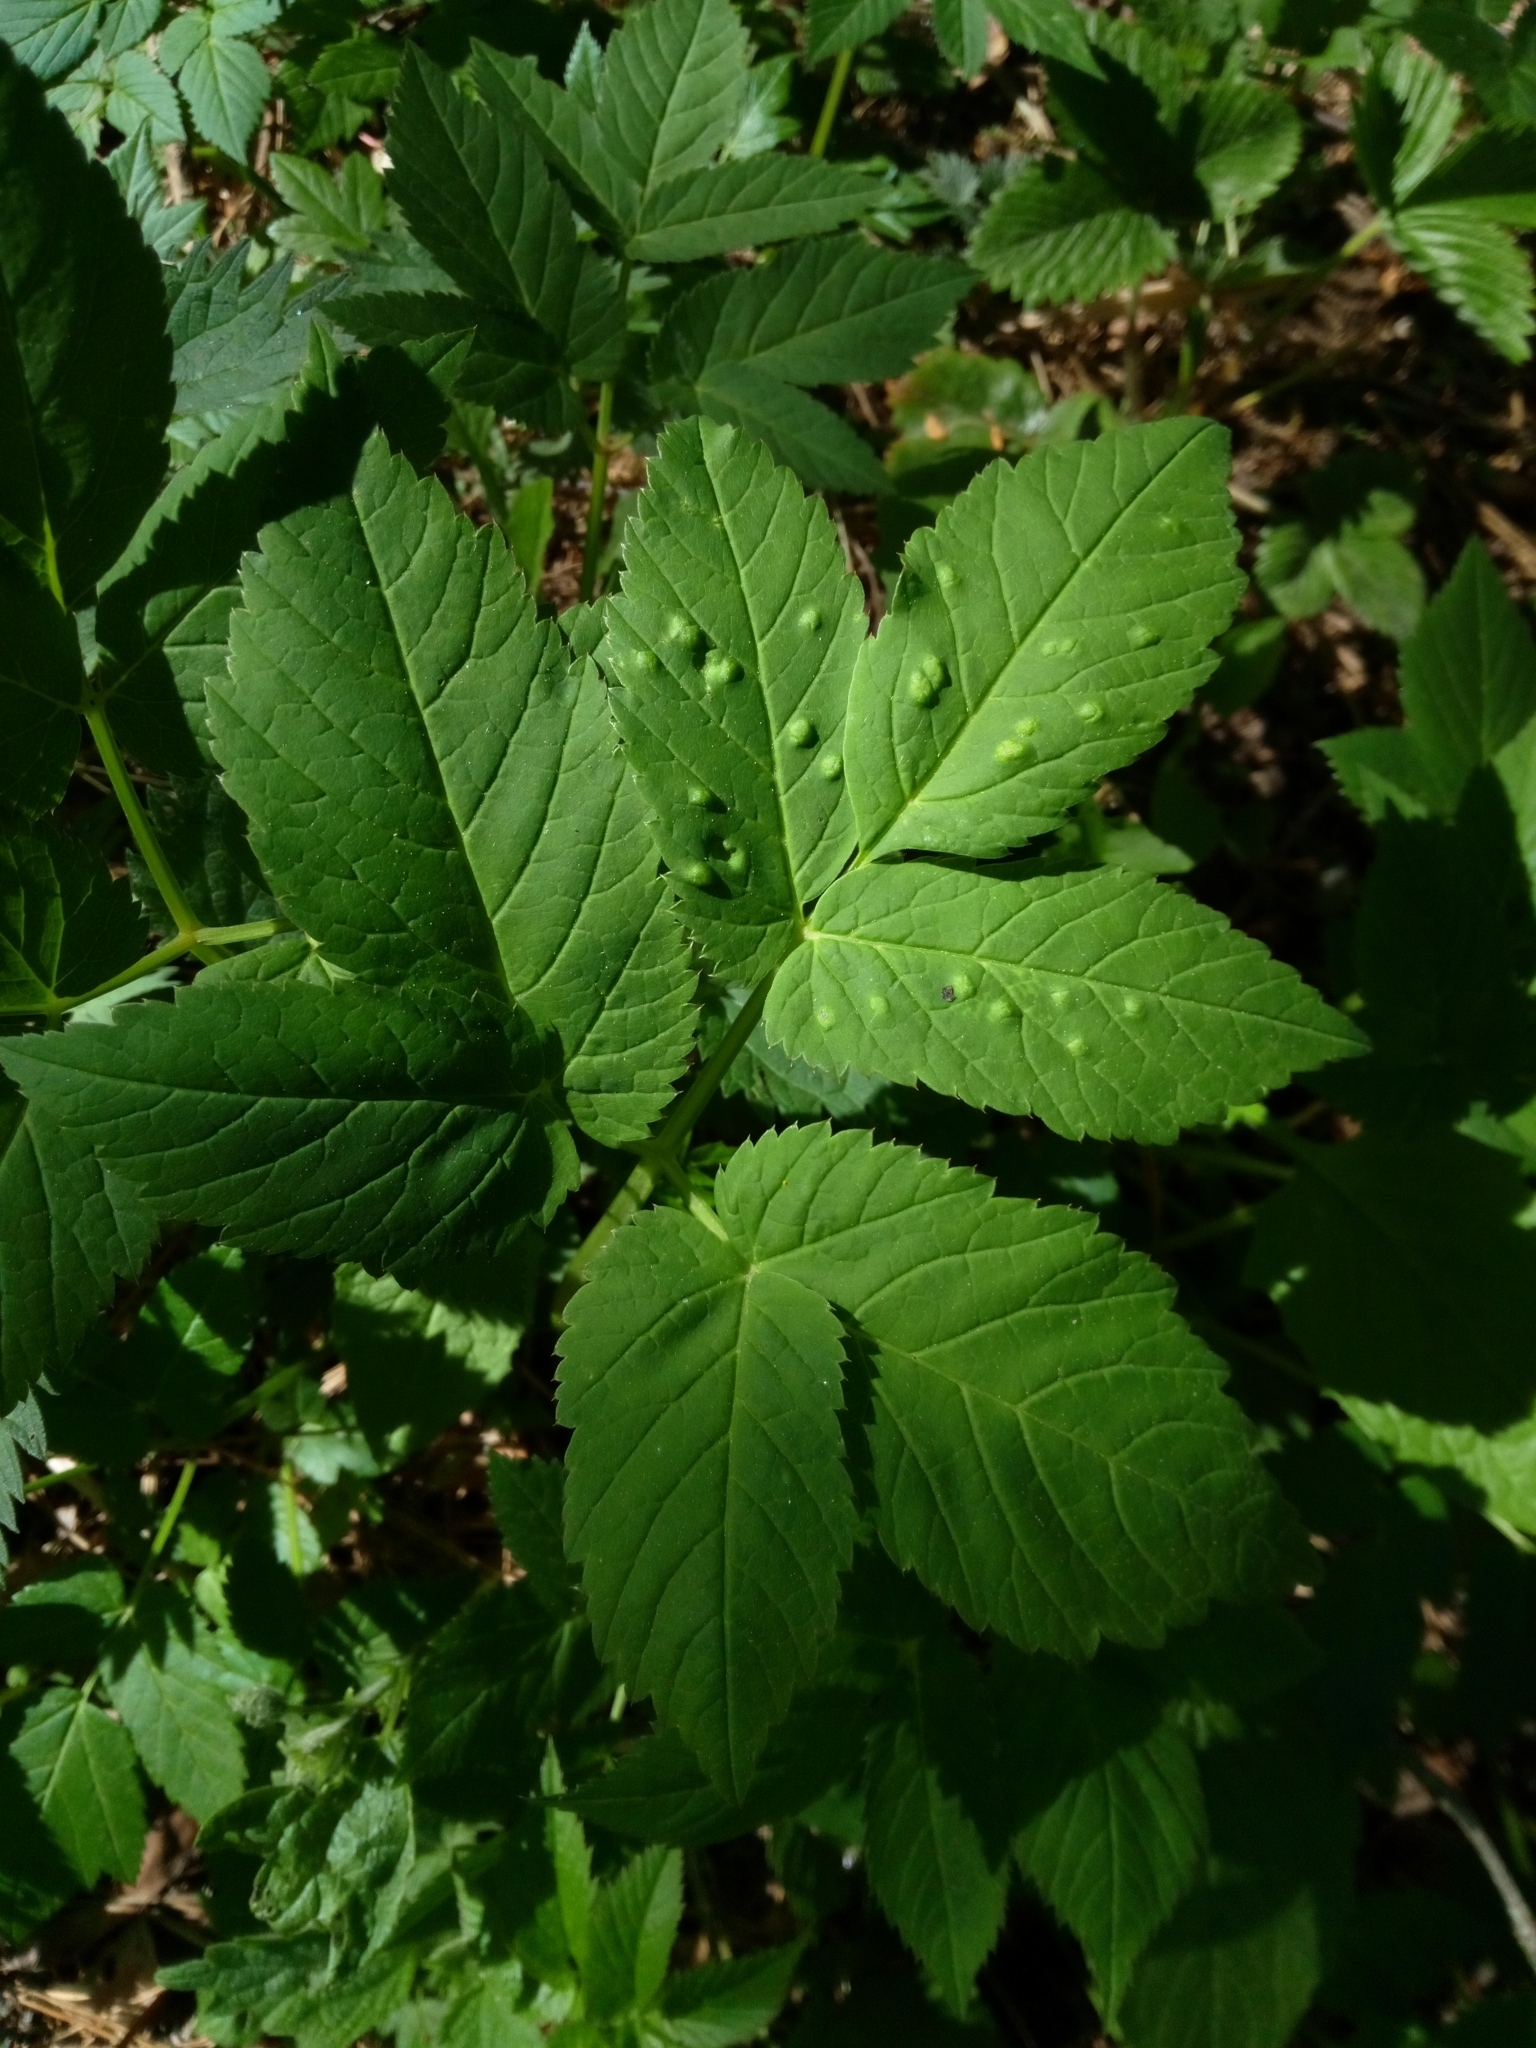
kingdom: Plantae
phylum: Tracheophyta
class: Magnoliopsida
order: Apiales
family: Apiaceae
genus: Aegopodium
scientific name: Aegopodium podagraria
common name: Ground-elder
